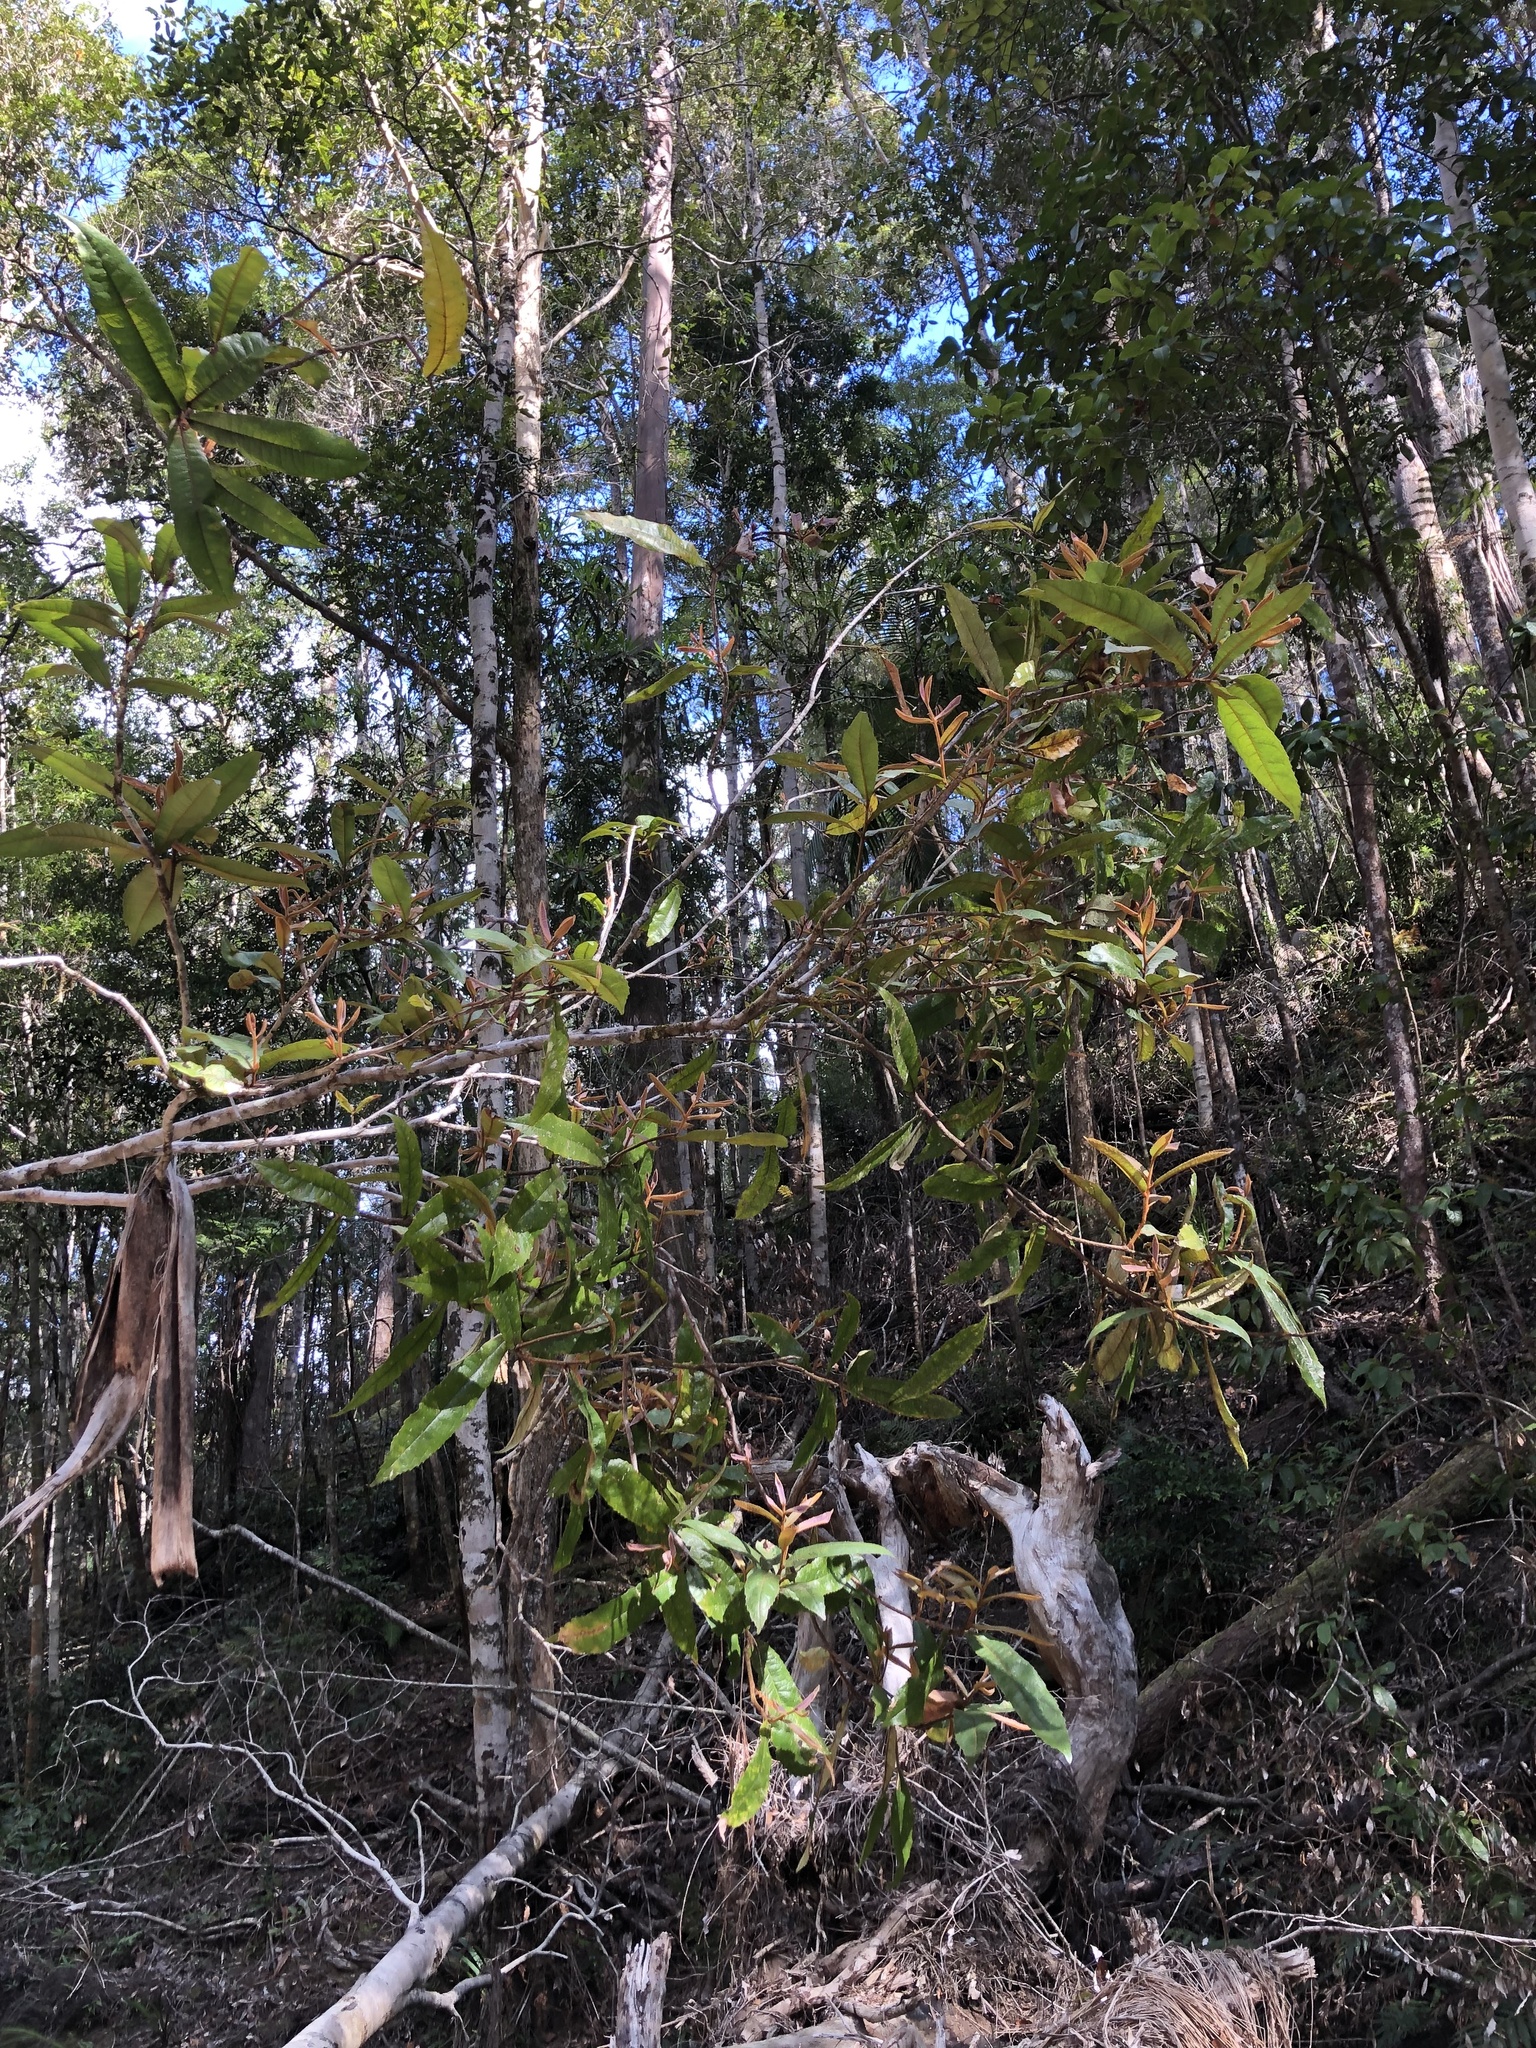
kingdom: Plantae
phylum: Tracheophyta
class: Magnoliopsida
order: Proteales
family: Proteaceae
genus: Helicia
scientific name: Helicia ferruginea
